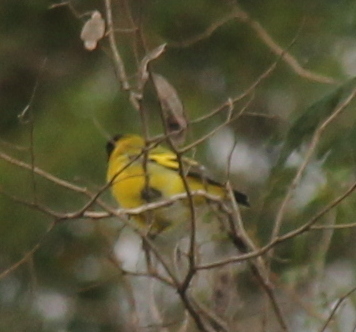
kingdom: Animalia
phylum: Chordata
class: Aves
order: Passeriformes
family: Fringillidae
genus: Spinus
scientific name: Spinus magellanicus
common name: Hooded siskin
